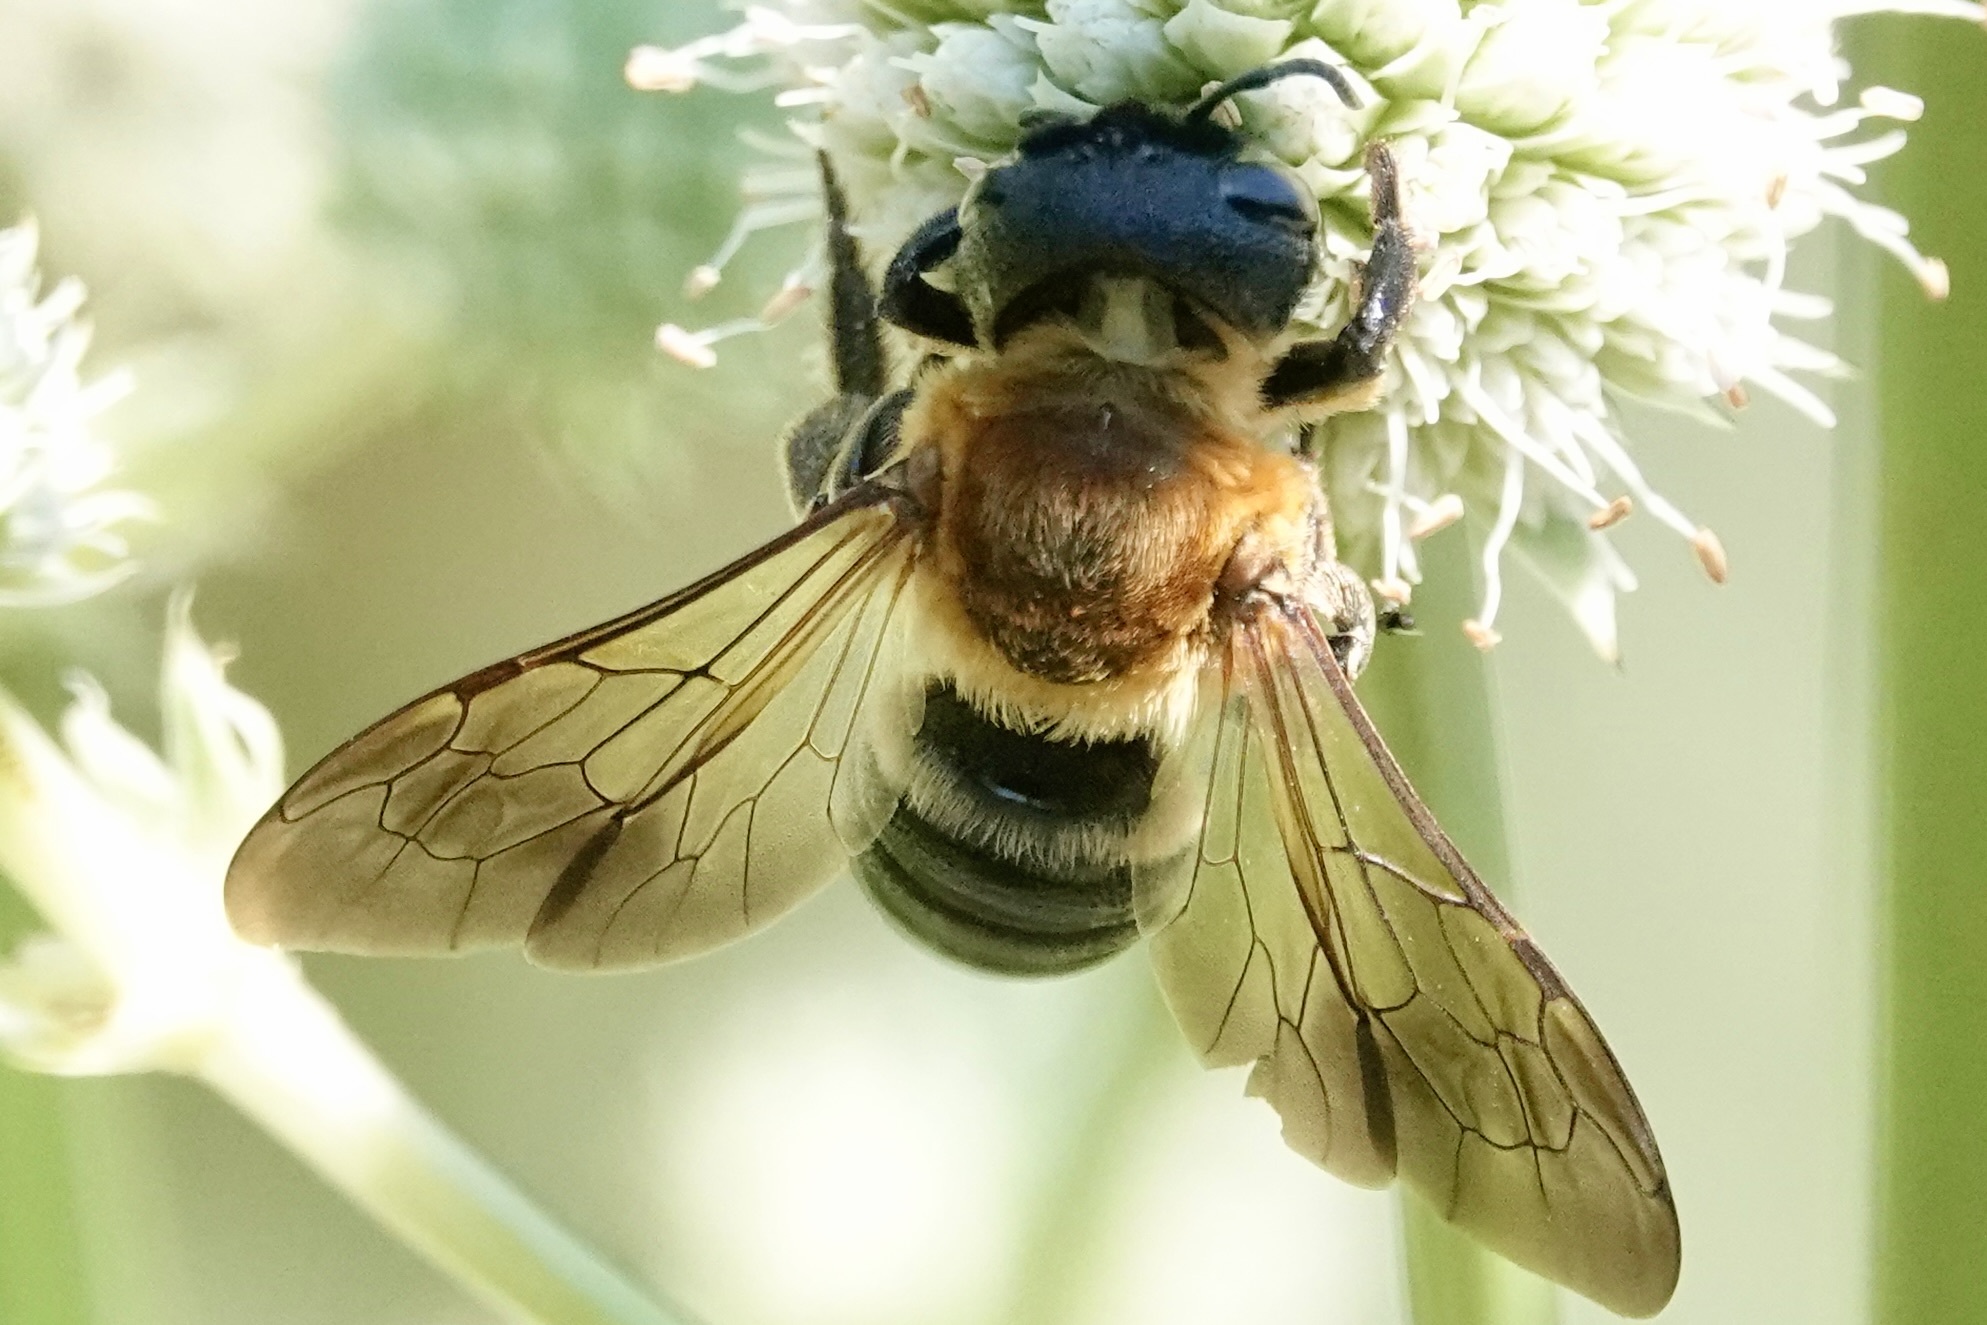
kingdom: Animalia
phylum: Arthropoda
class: Insecta
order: Hymenoptera
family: Megachilidae
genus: Megachile
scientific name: Megachile sculpturalis
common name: Sculptured resin bee
